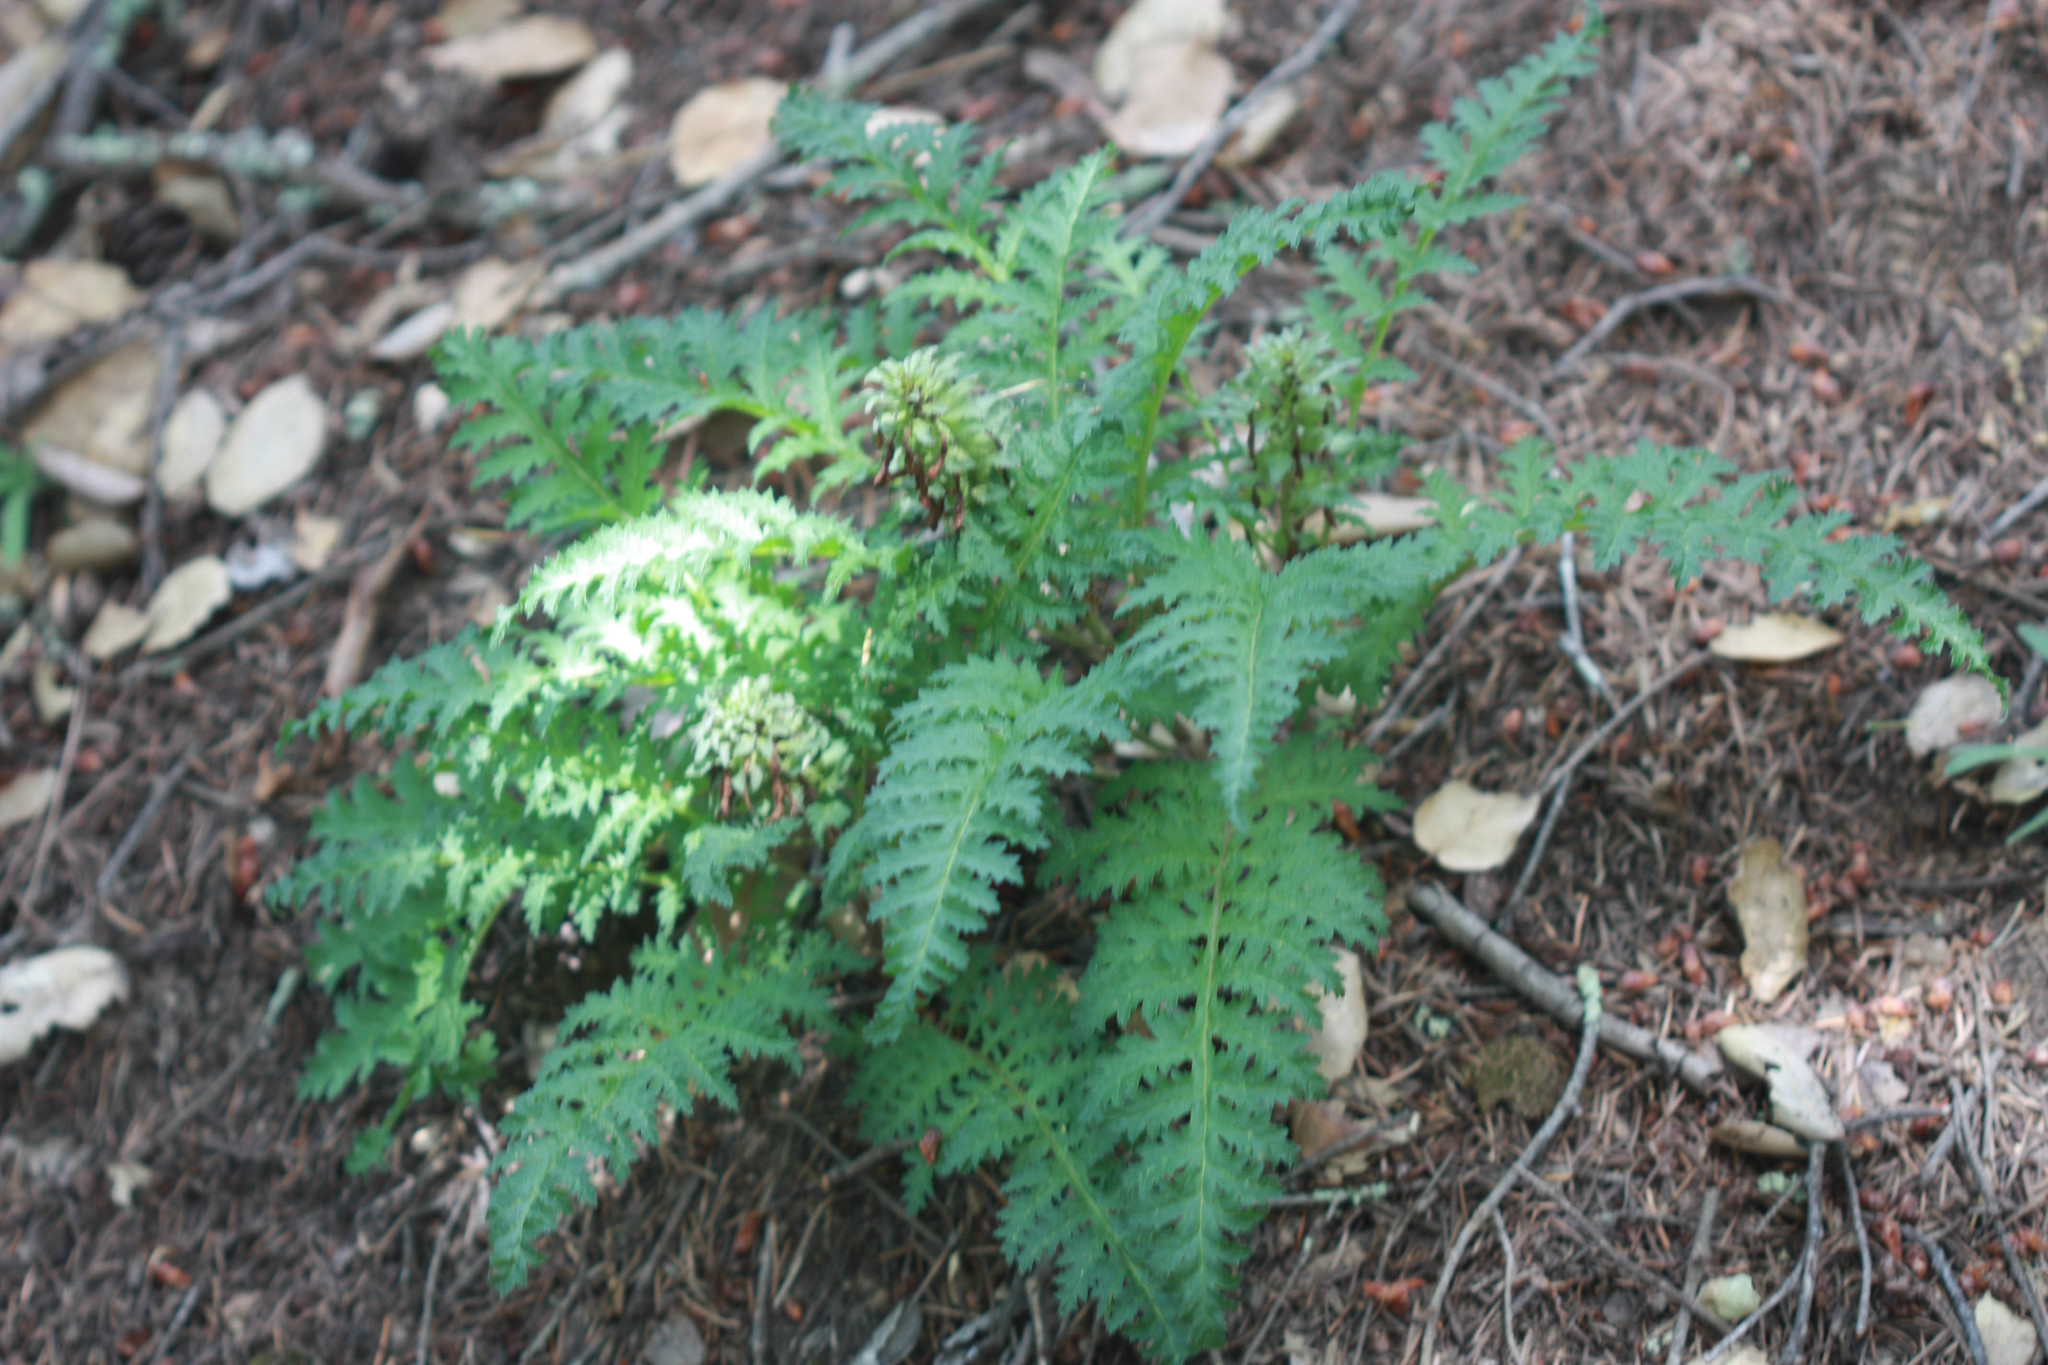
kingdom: Plantae
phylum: Tracheophyta
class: Magnoliopsida
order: Lamiales
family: Orobanchaceae
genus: Pedicularis
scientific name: Pedicularis densiflora
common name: Indian warrior
